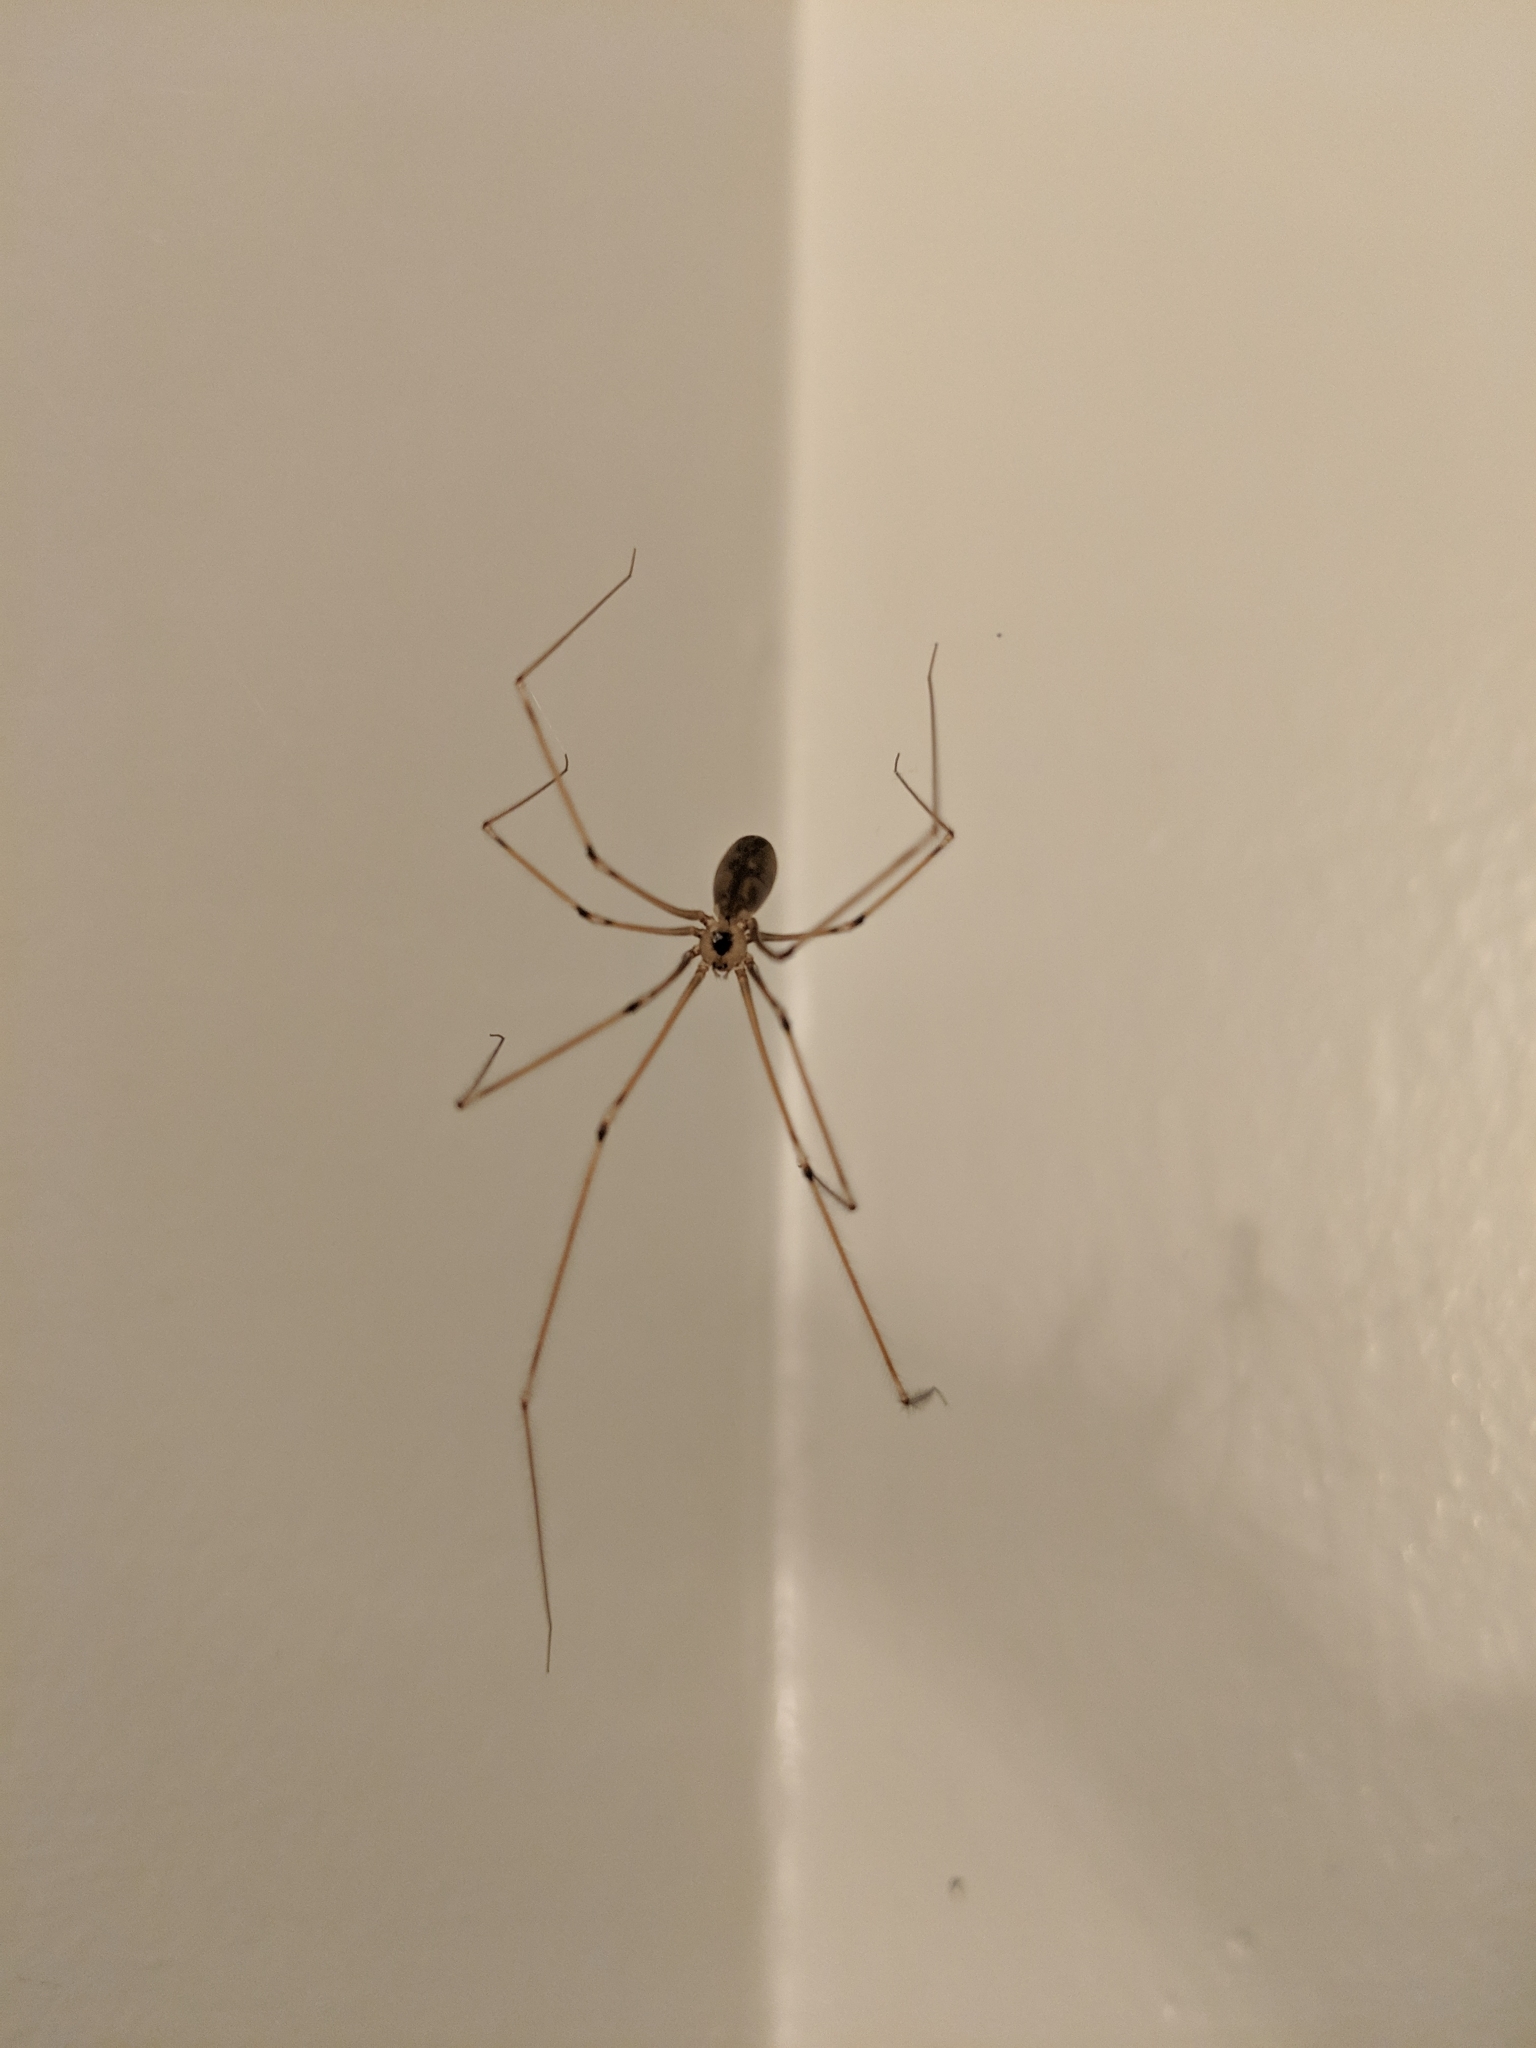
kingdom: Animalia
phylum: Arthropoda
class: Arachnida
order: Araneae
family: Pholcidae
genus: Pholcus
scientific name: Pholcus phalangioides
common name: Longbodied cellar spider
